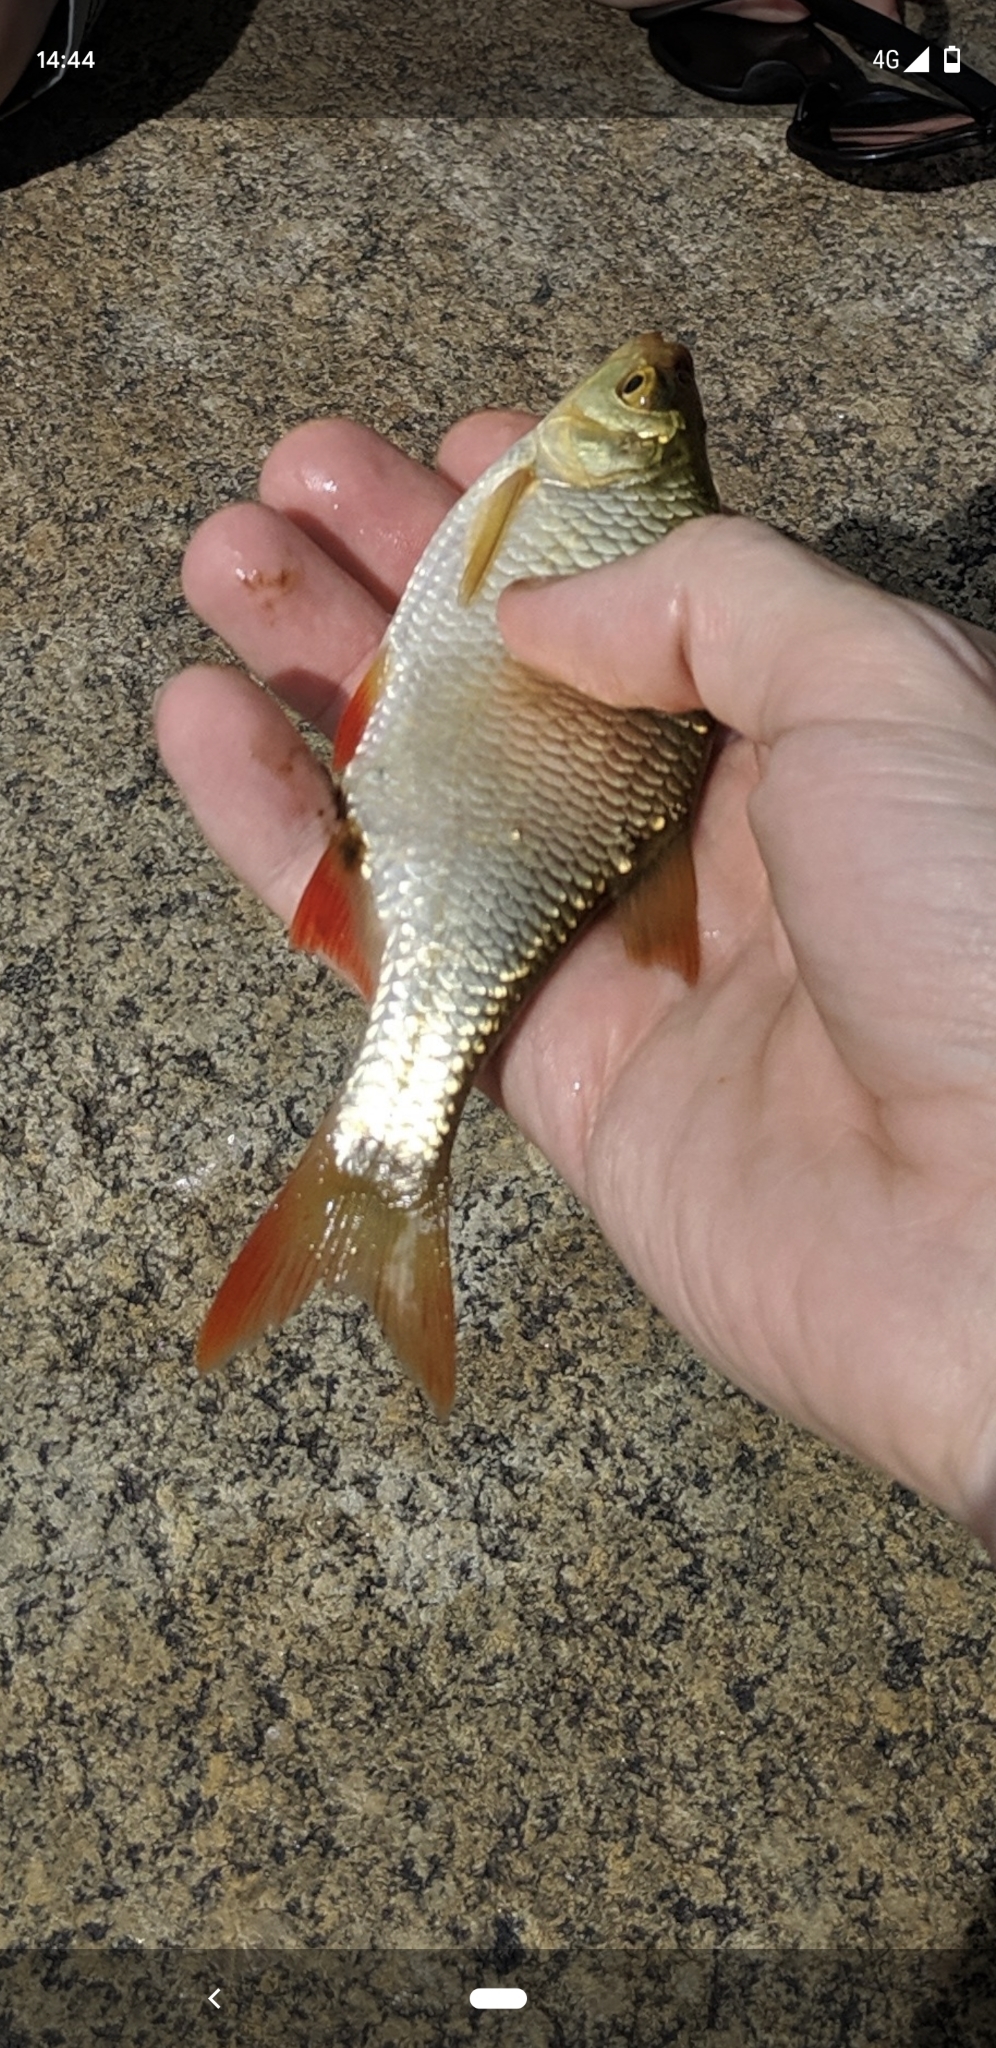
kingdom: Animalia
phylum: Chordata
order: Cypriniformes
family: Cyprinidae
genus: Scardinius
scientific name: Scardinius erythrophthalmus
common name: Rudd
